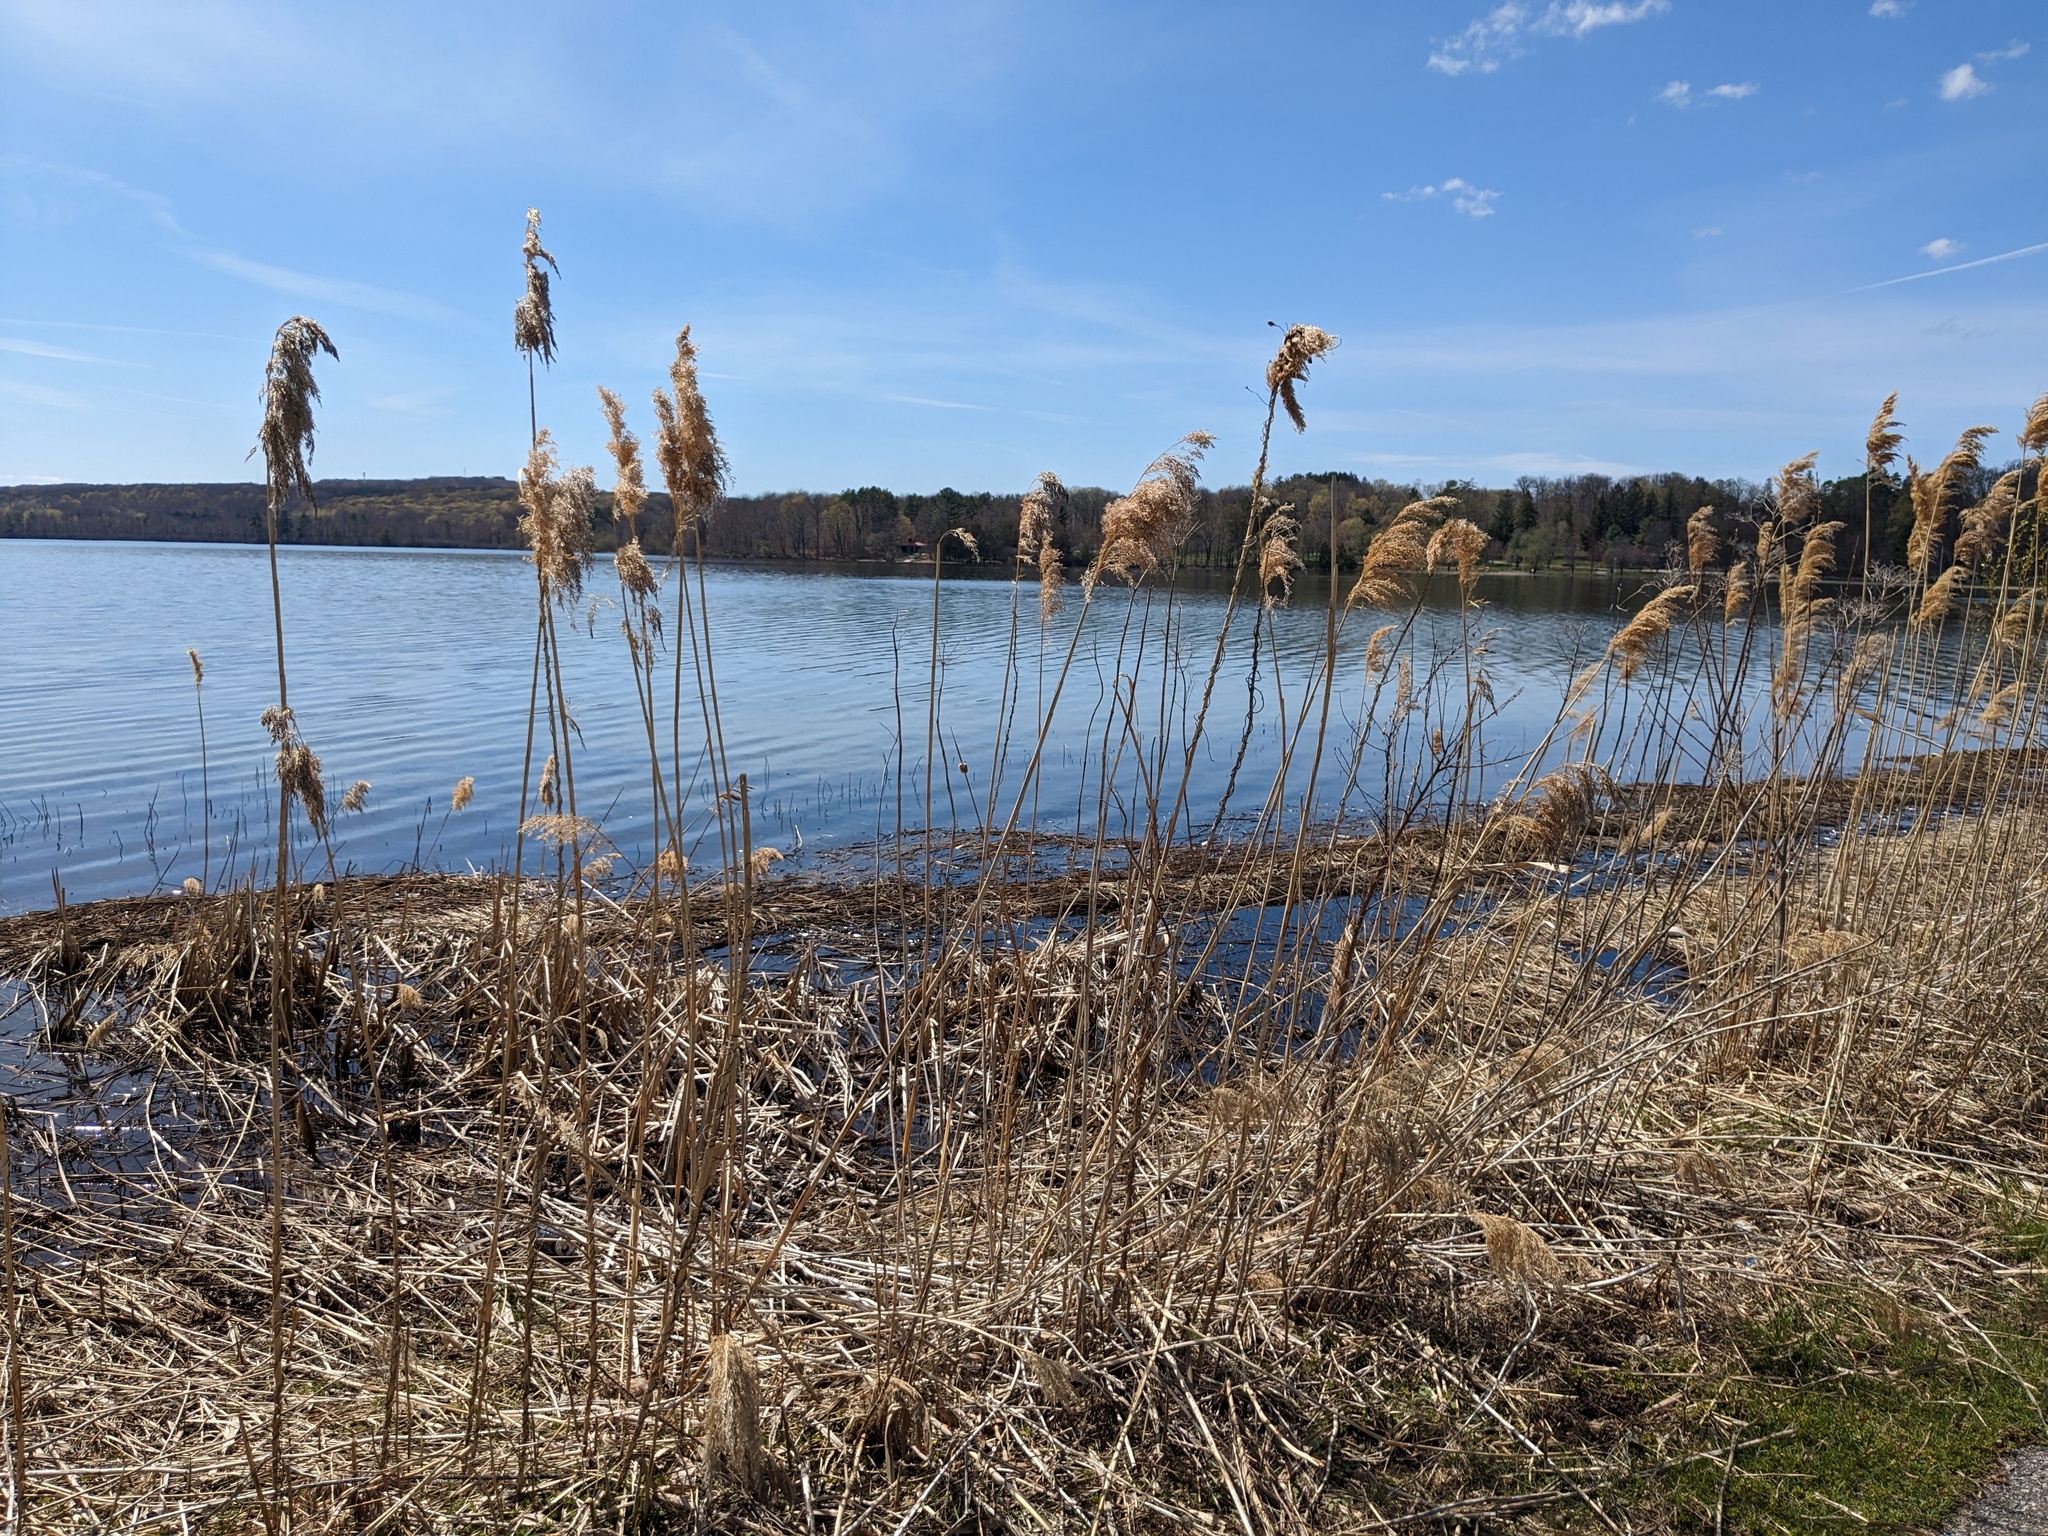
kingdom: Plantae
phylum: Tracheophyta
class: Liliopsida
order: Poales
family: Poaceae
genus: Phragmites
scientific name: Phragmites australis
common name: Common reed
